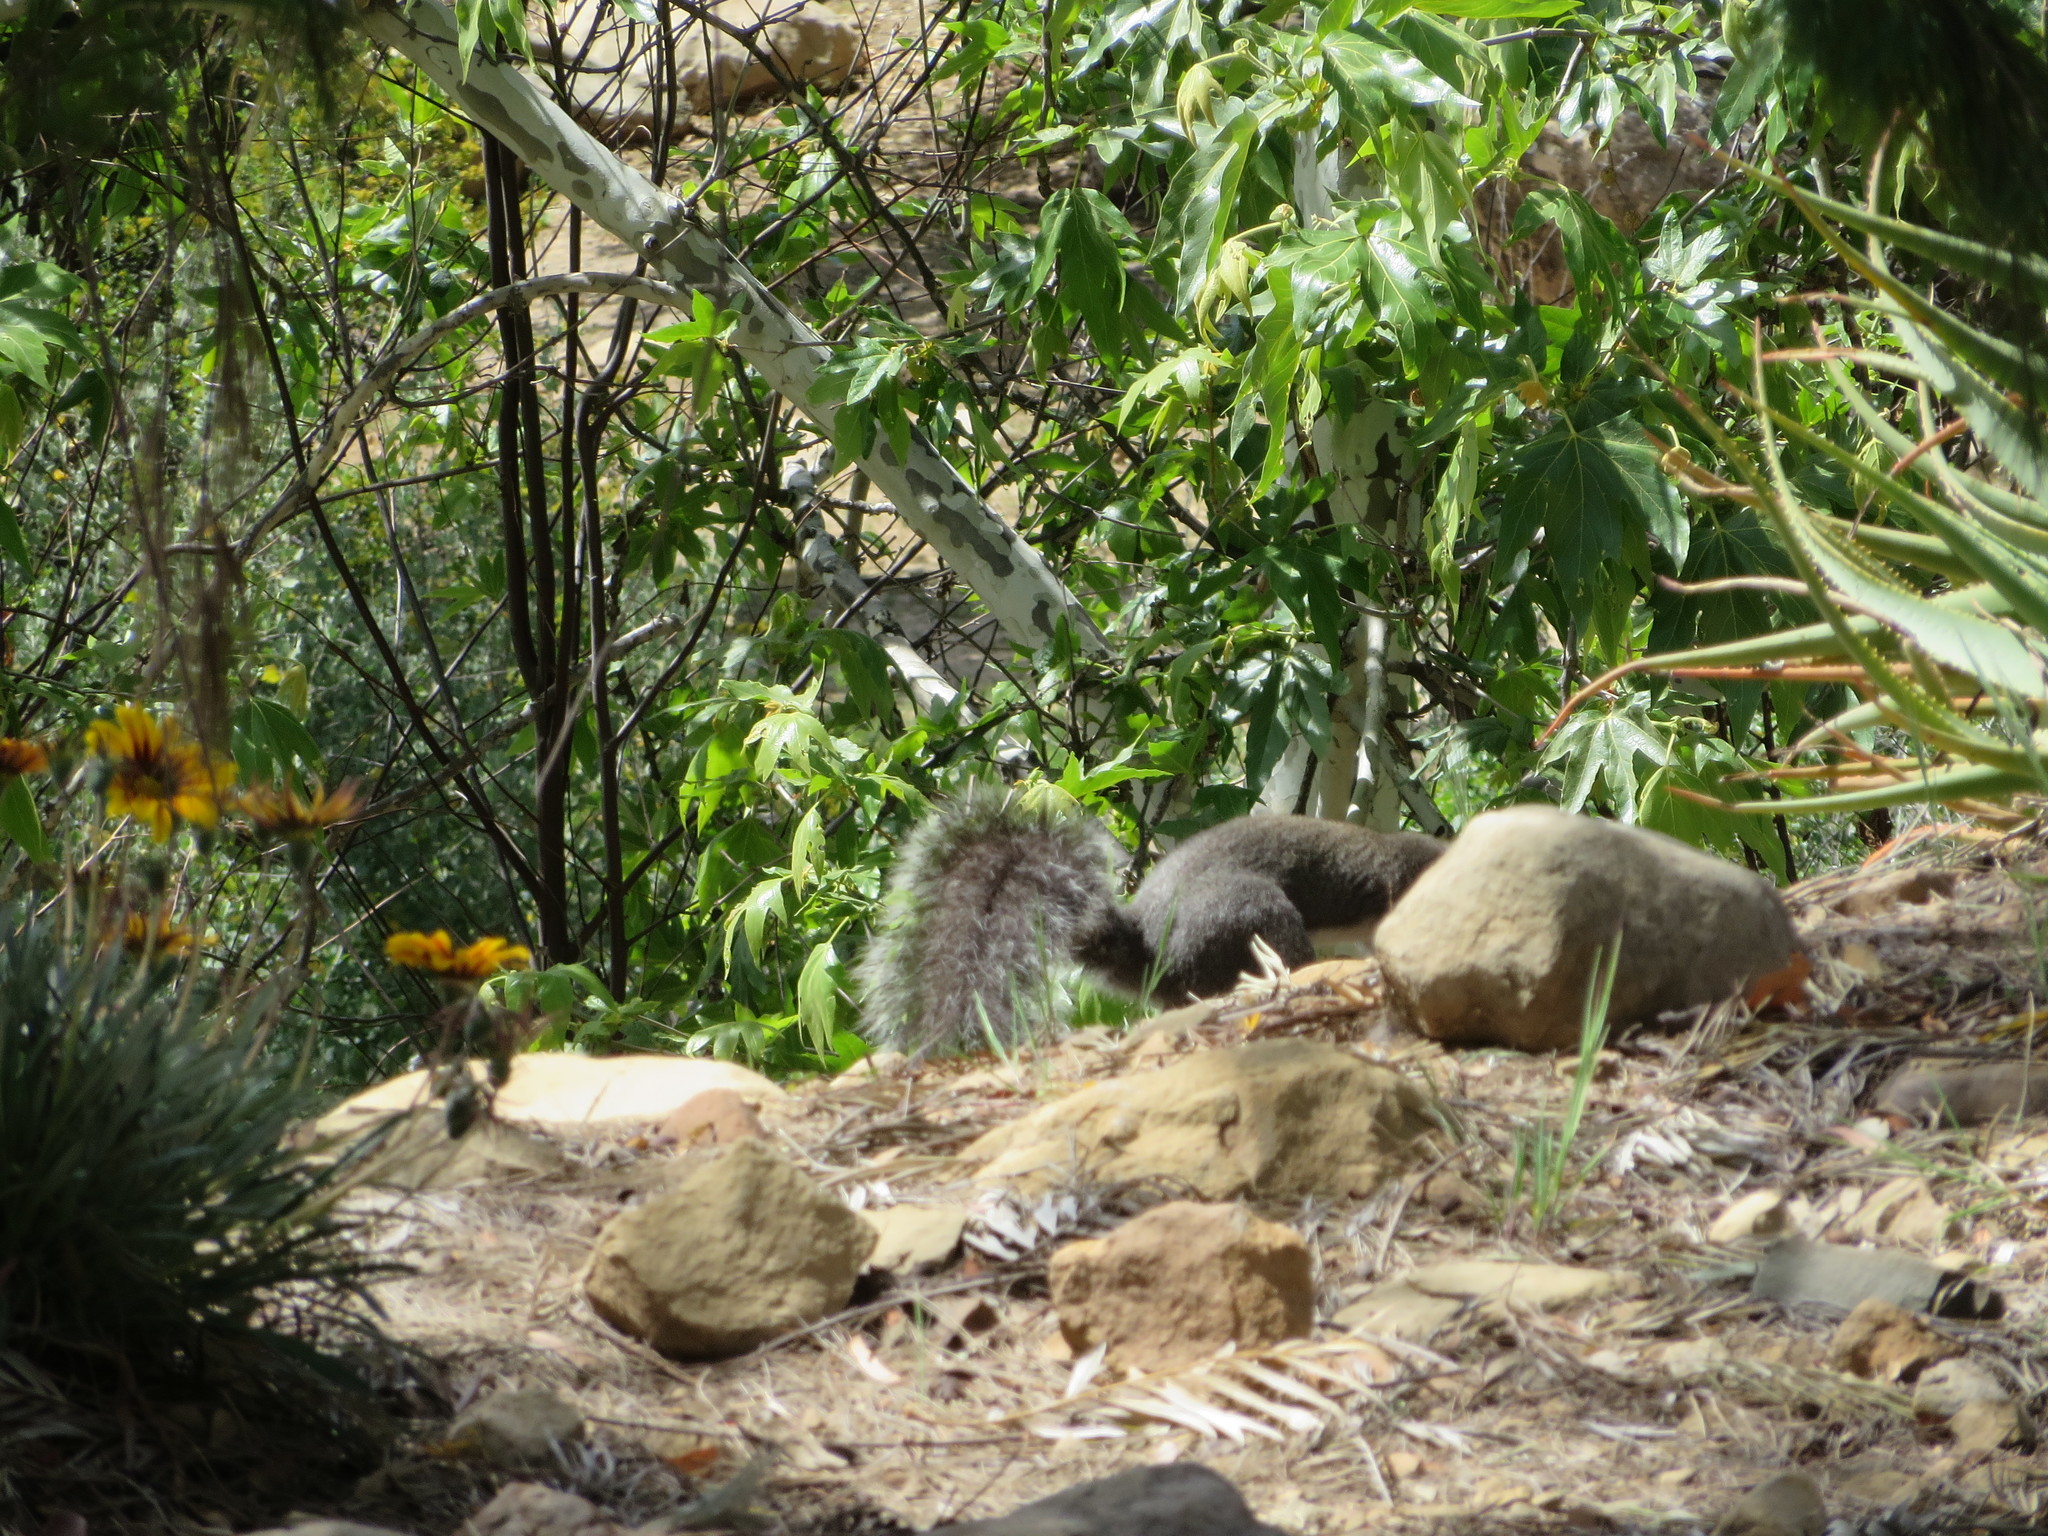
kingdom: Animalia
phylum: Chordata
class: Mammalia
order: Rodentia
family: Sciuridae
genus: Sciurus
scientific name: Sciurus griseus
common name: Western gray squirrel
